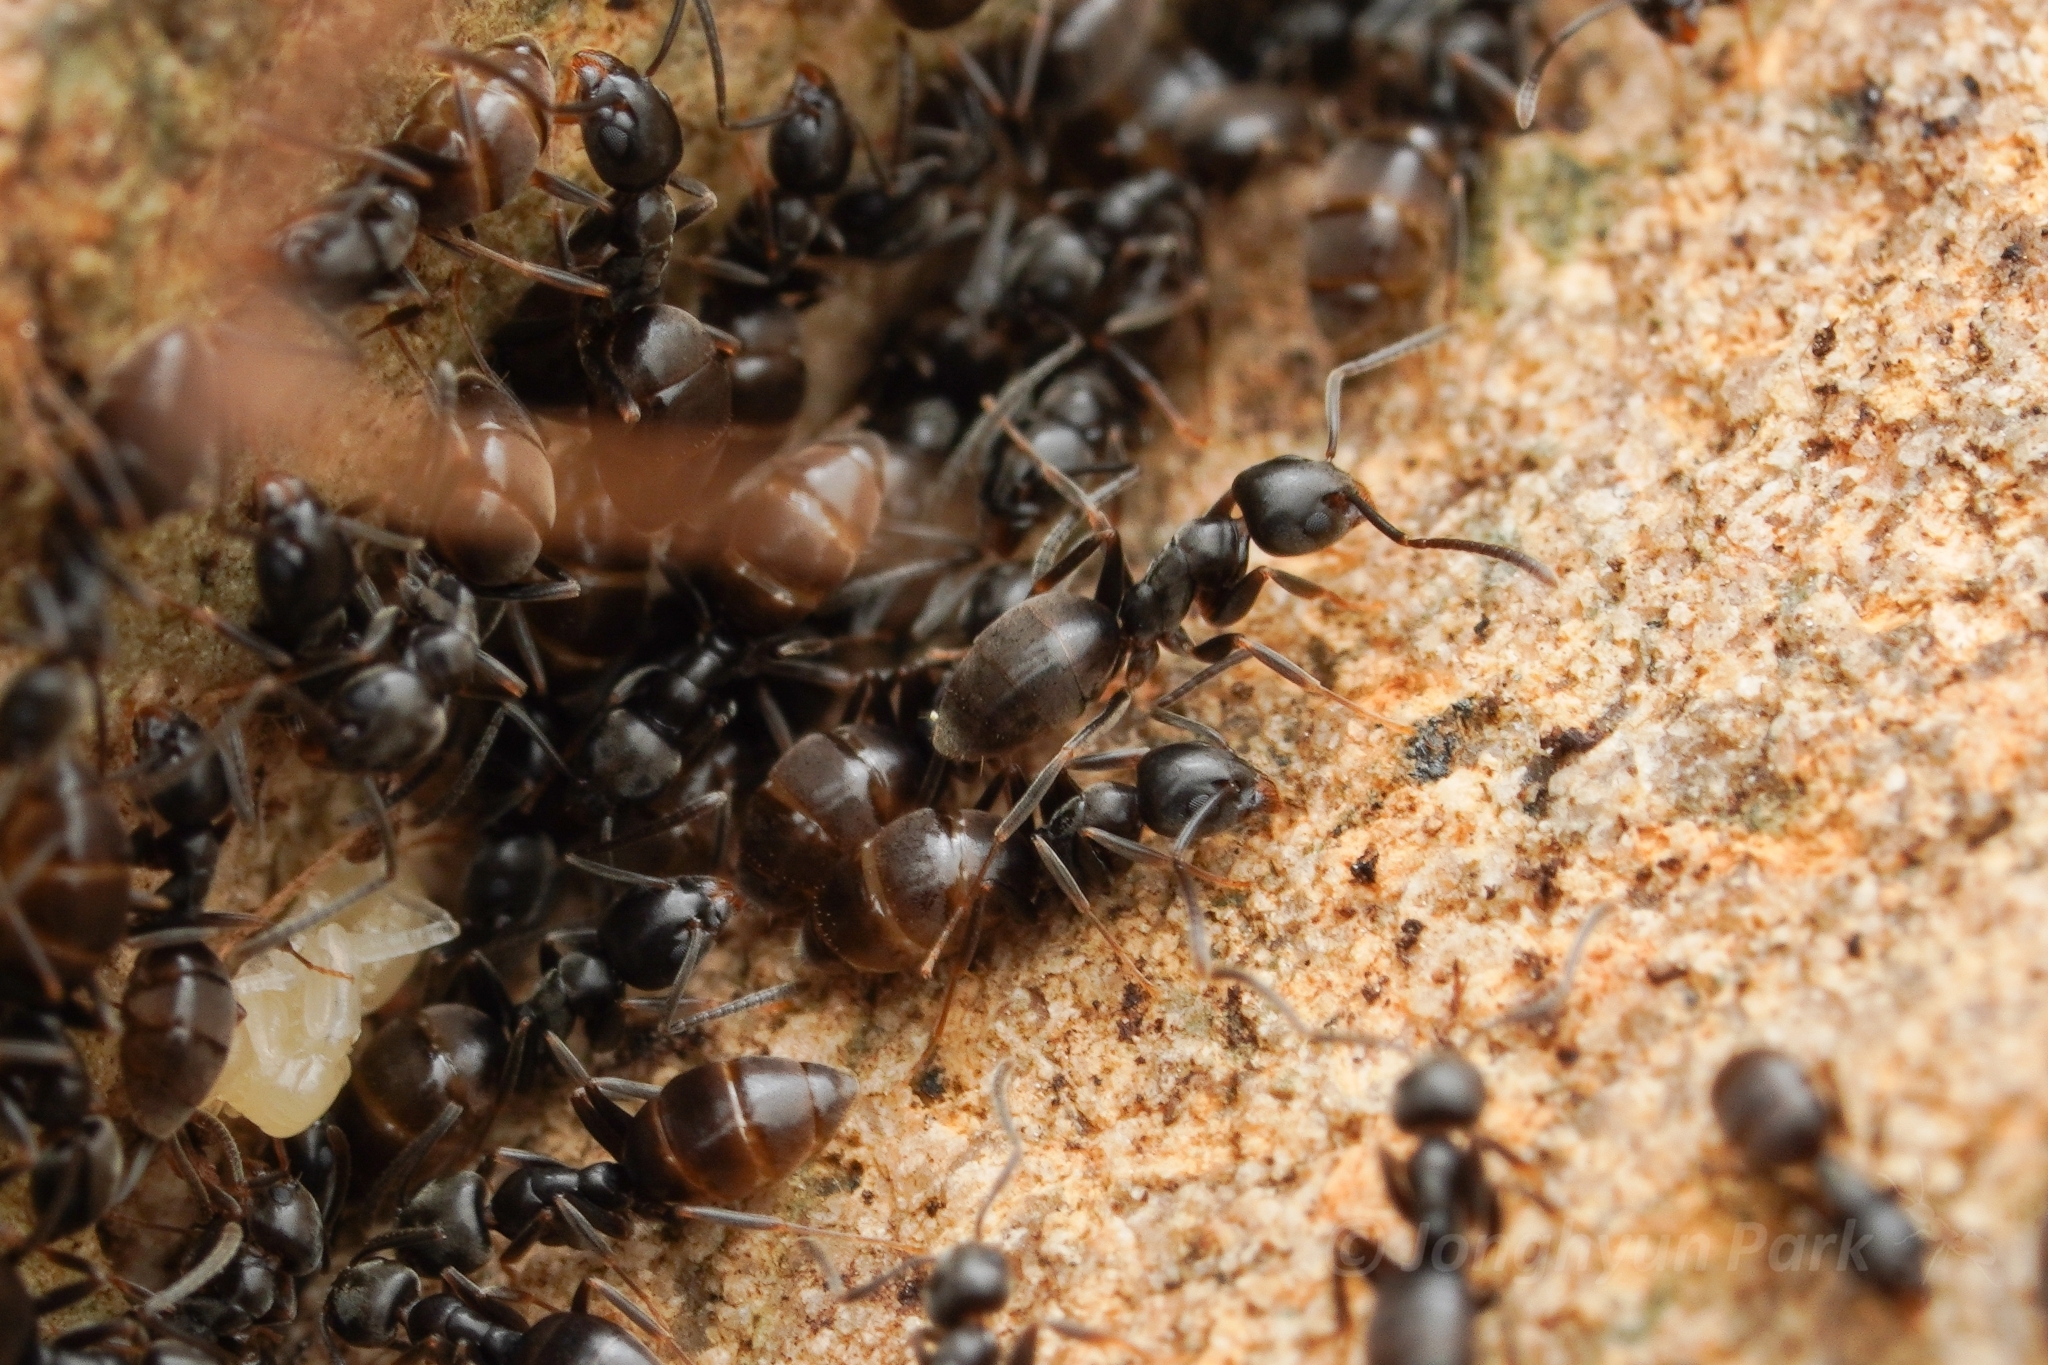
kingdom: Animalia
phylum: Arthropoda
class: Insecta
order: Hymenoptera
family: Formicidae
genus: Tapinoma
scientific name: Tapinoma sessile
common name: Odorous house ant
